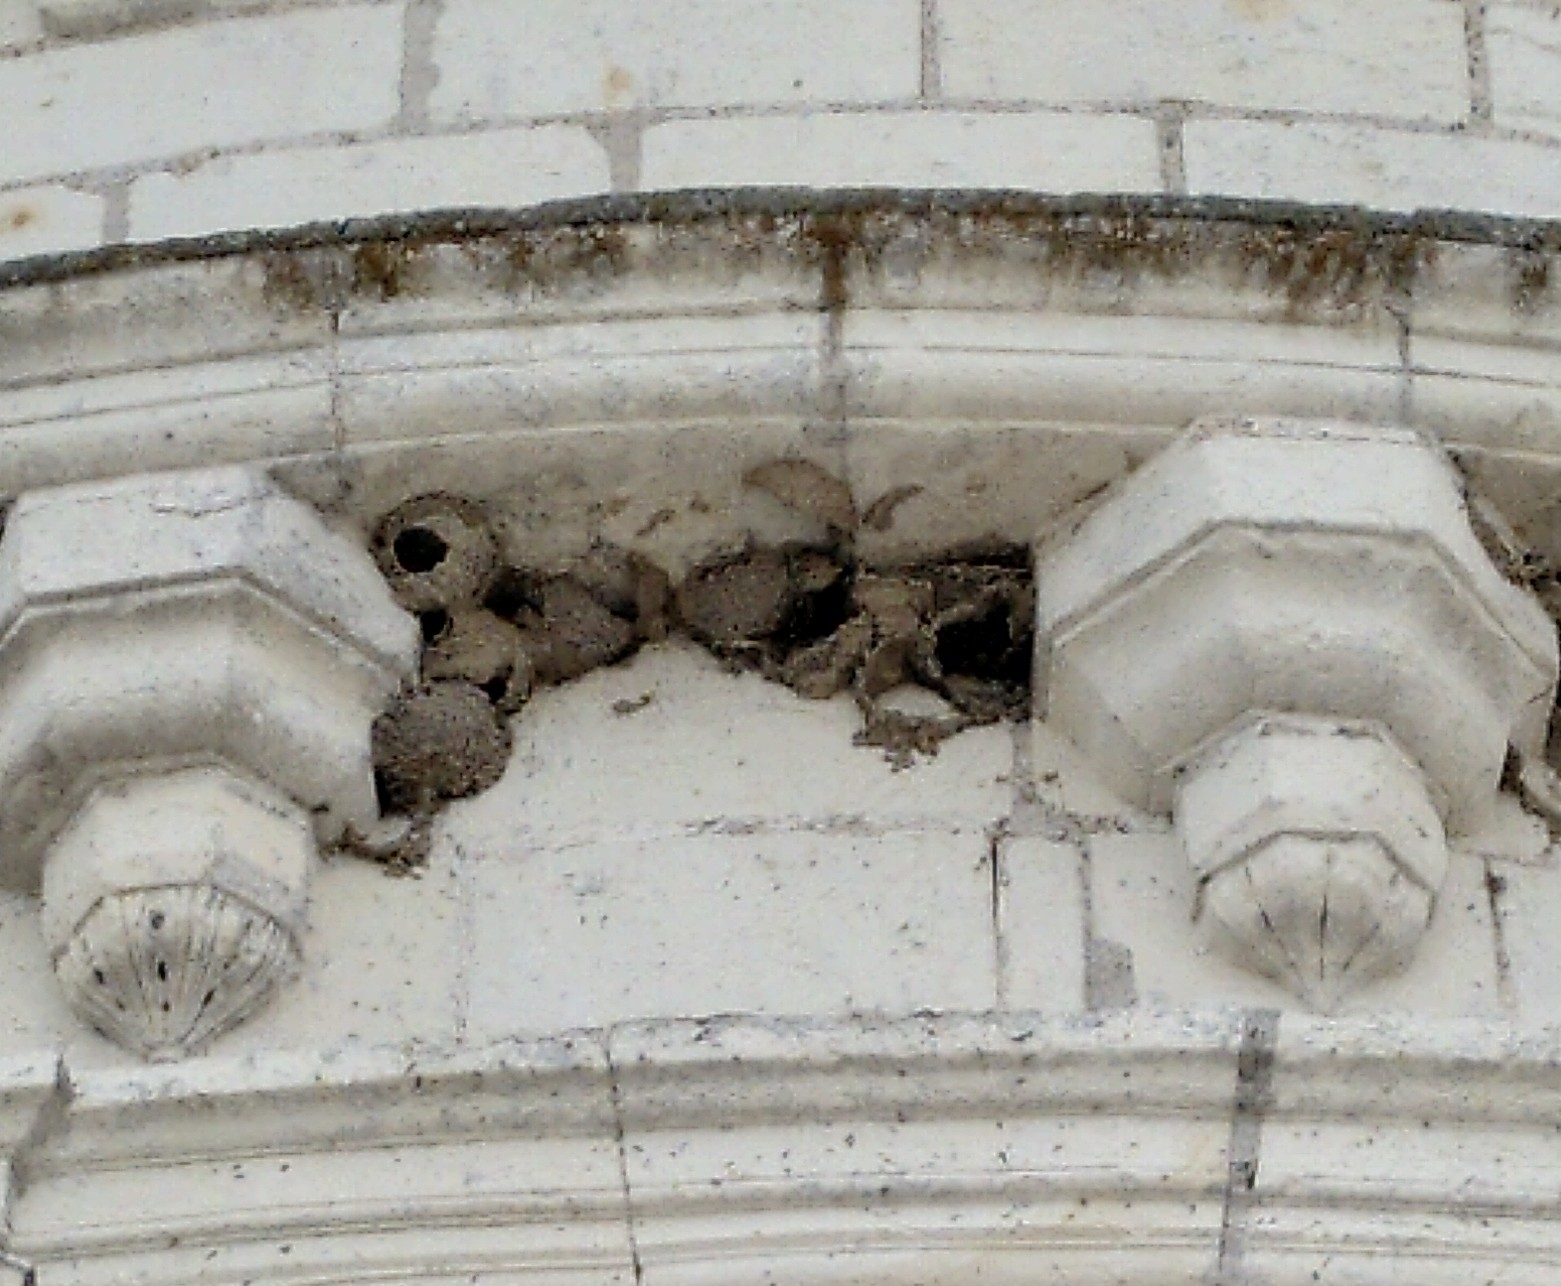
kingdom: Animalia
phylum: Chordata
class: Aves
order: Passeriformes
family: Hirundinidae
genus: Delichon
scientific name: Delichon urbicum
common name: Common house martin
